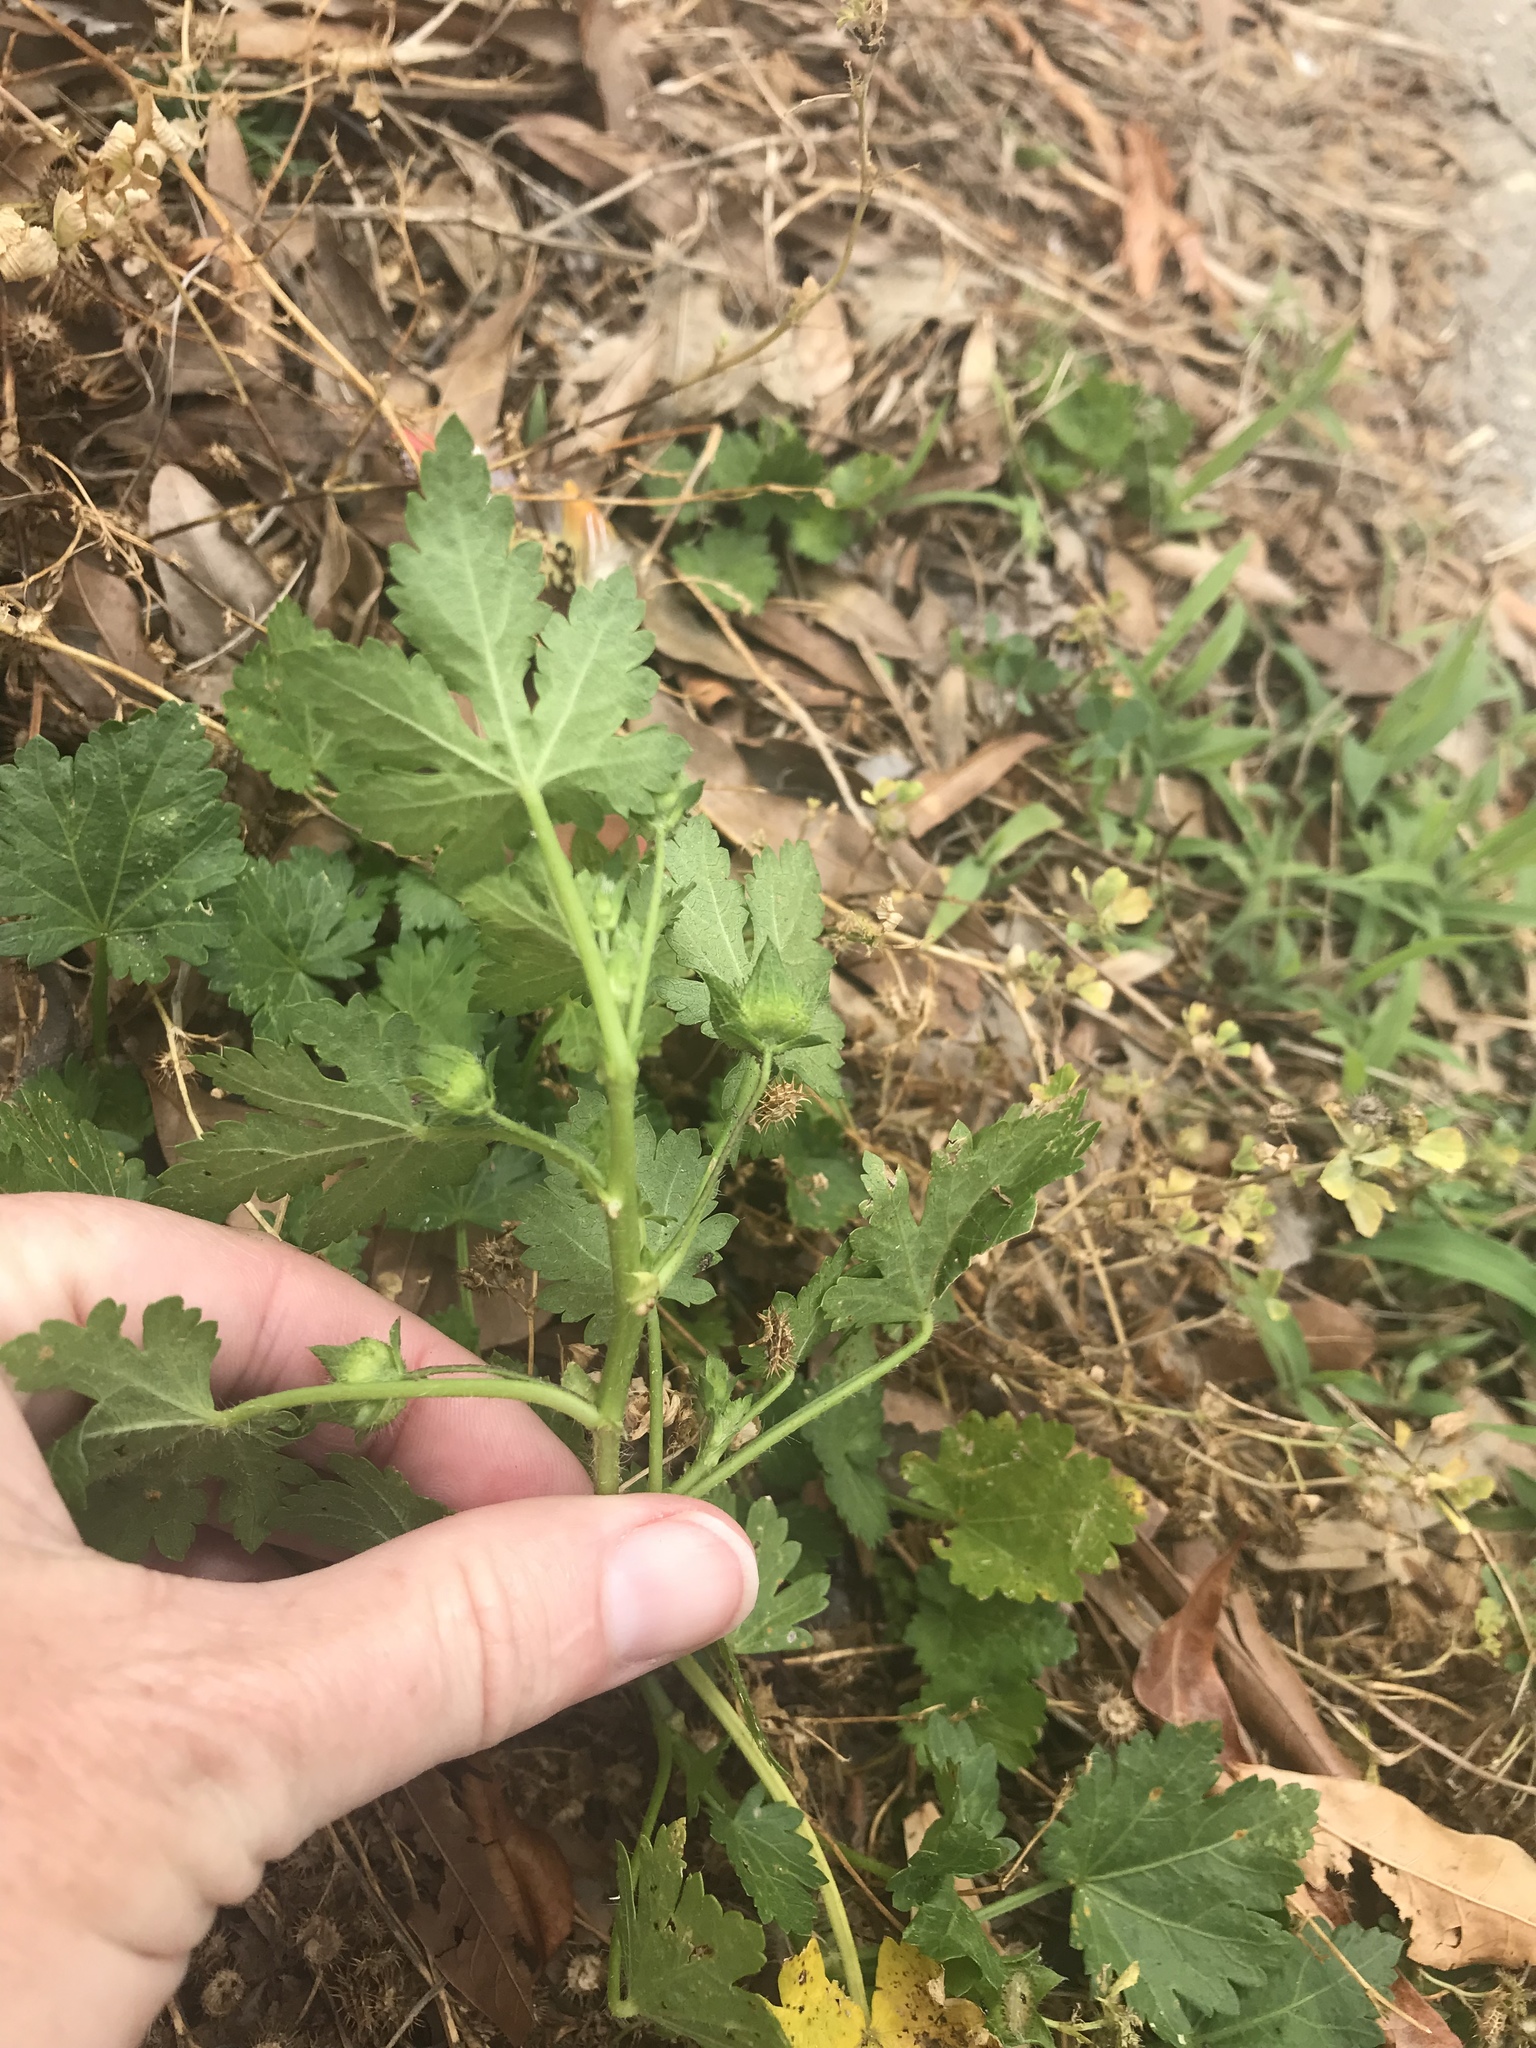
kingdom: Plantae
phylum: Tracheophyta
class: Magnoliopsida
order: Malvales
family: Malvaceae
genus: Modiola
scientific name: Modiola caroliniana
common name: Carolina bristlemallow
